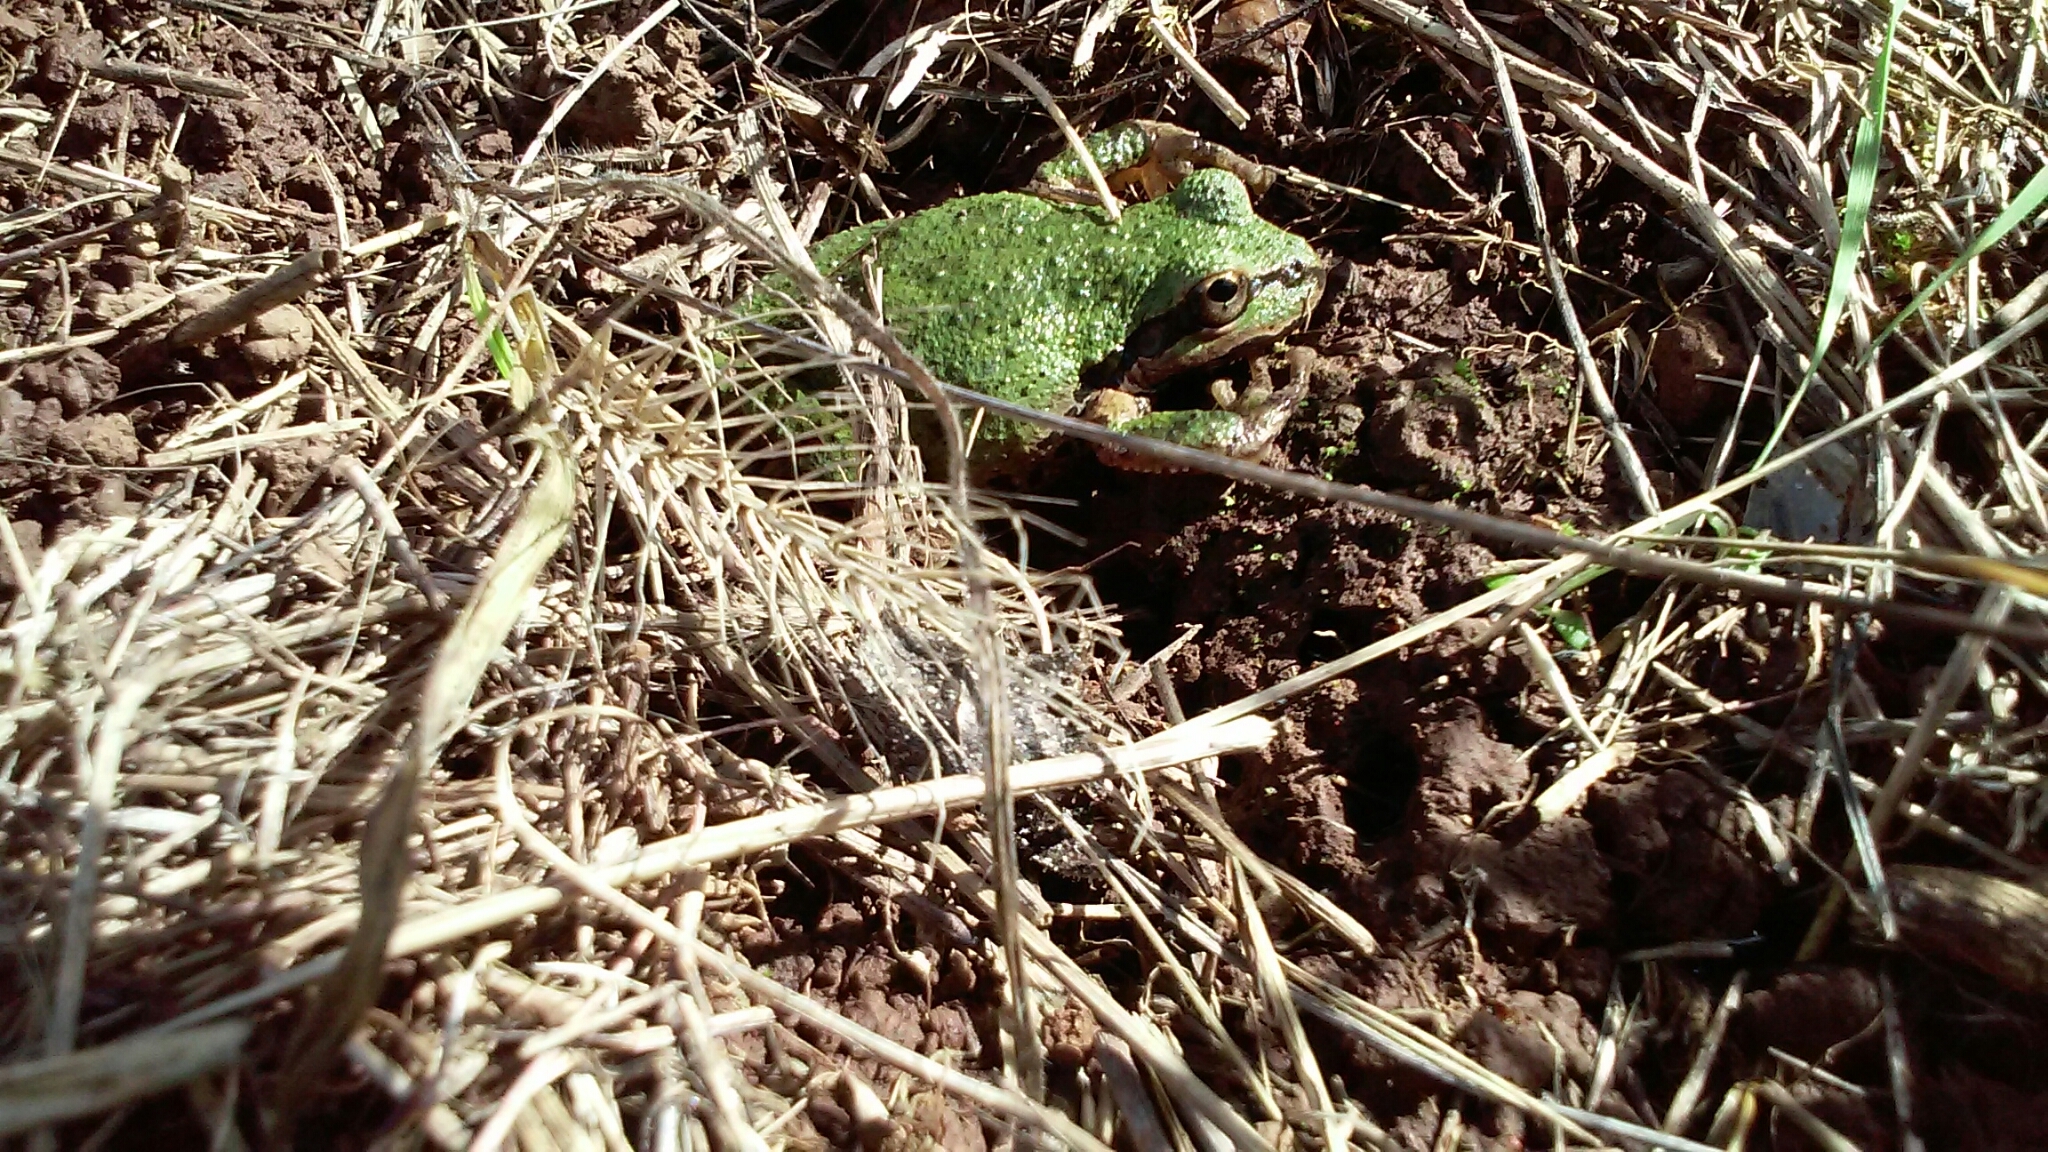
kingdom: Animalia
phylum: Chordata
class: Amphibia
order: Anura
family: Hylidae
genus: Pseudacris
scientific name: Pseudacris regilla
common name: Pacific chorus frog
